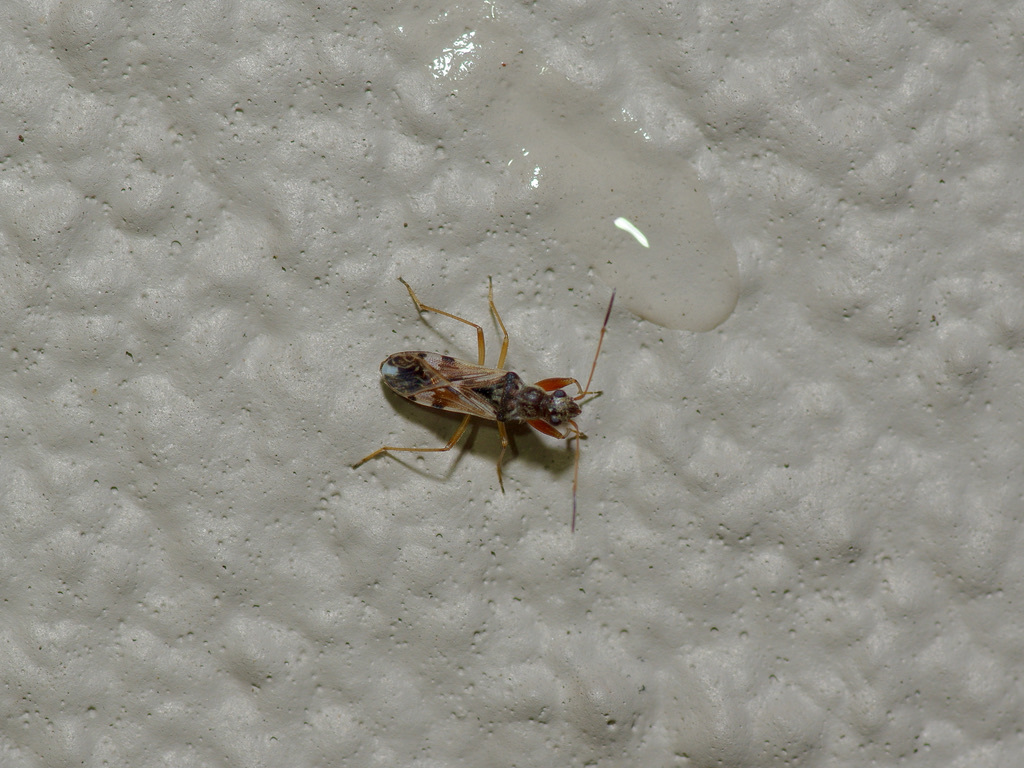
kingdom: Animalia
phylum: Arthropoda
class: Insecta
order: Hemiptera
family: Rhyparochromidae
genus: Neopamera
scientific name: Neopamera bilobata
